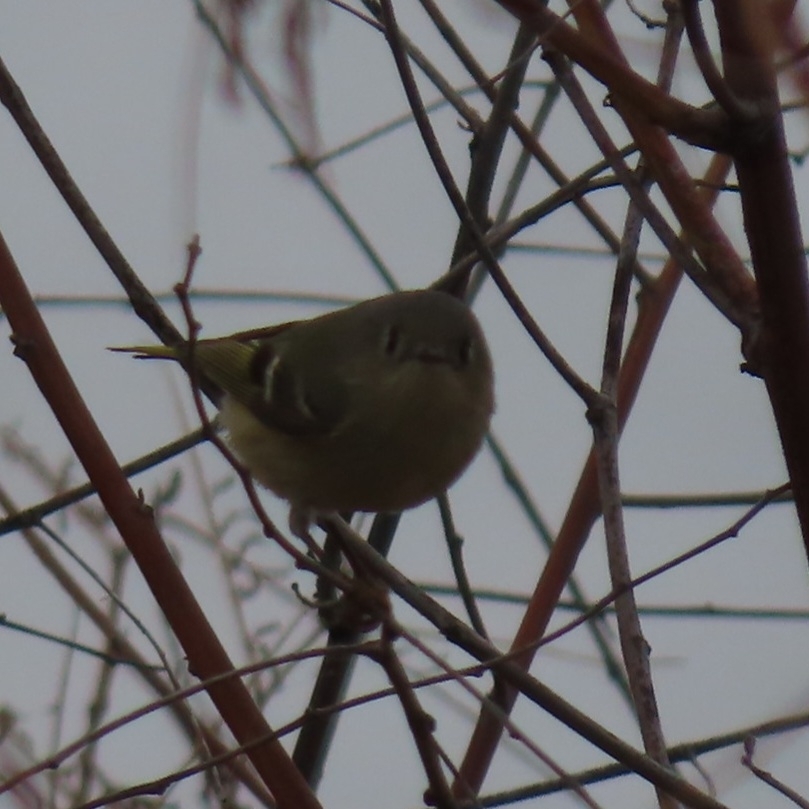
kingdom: Animalia
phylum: Chordata
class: Aves
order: Passeriformes
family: Regulidae
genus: Regulus
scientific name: Regulus calendula
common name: Ruby-crowned kinglet
